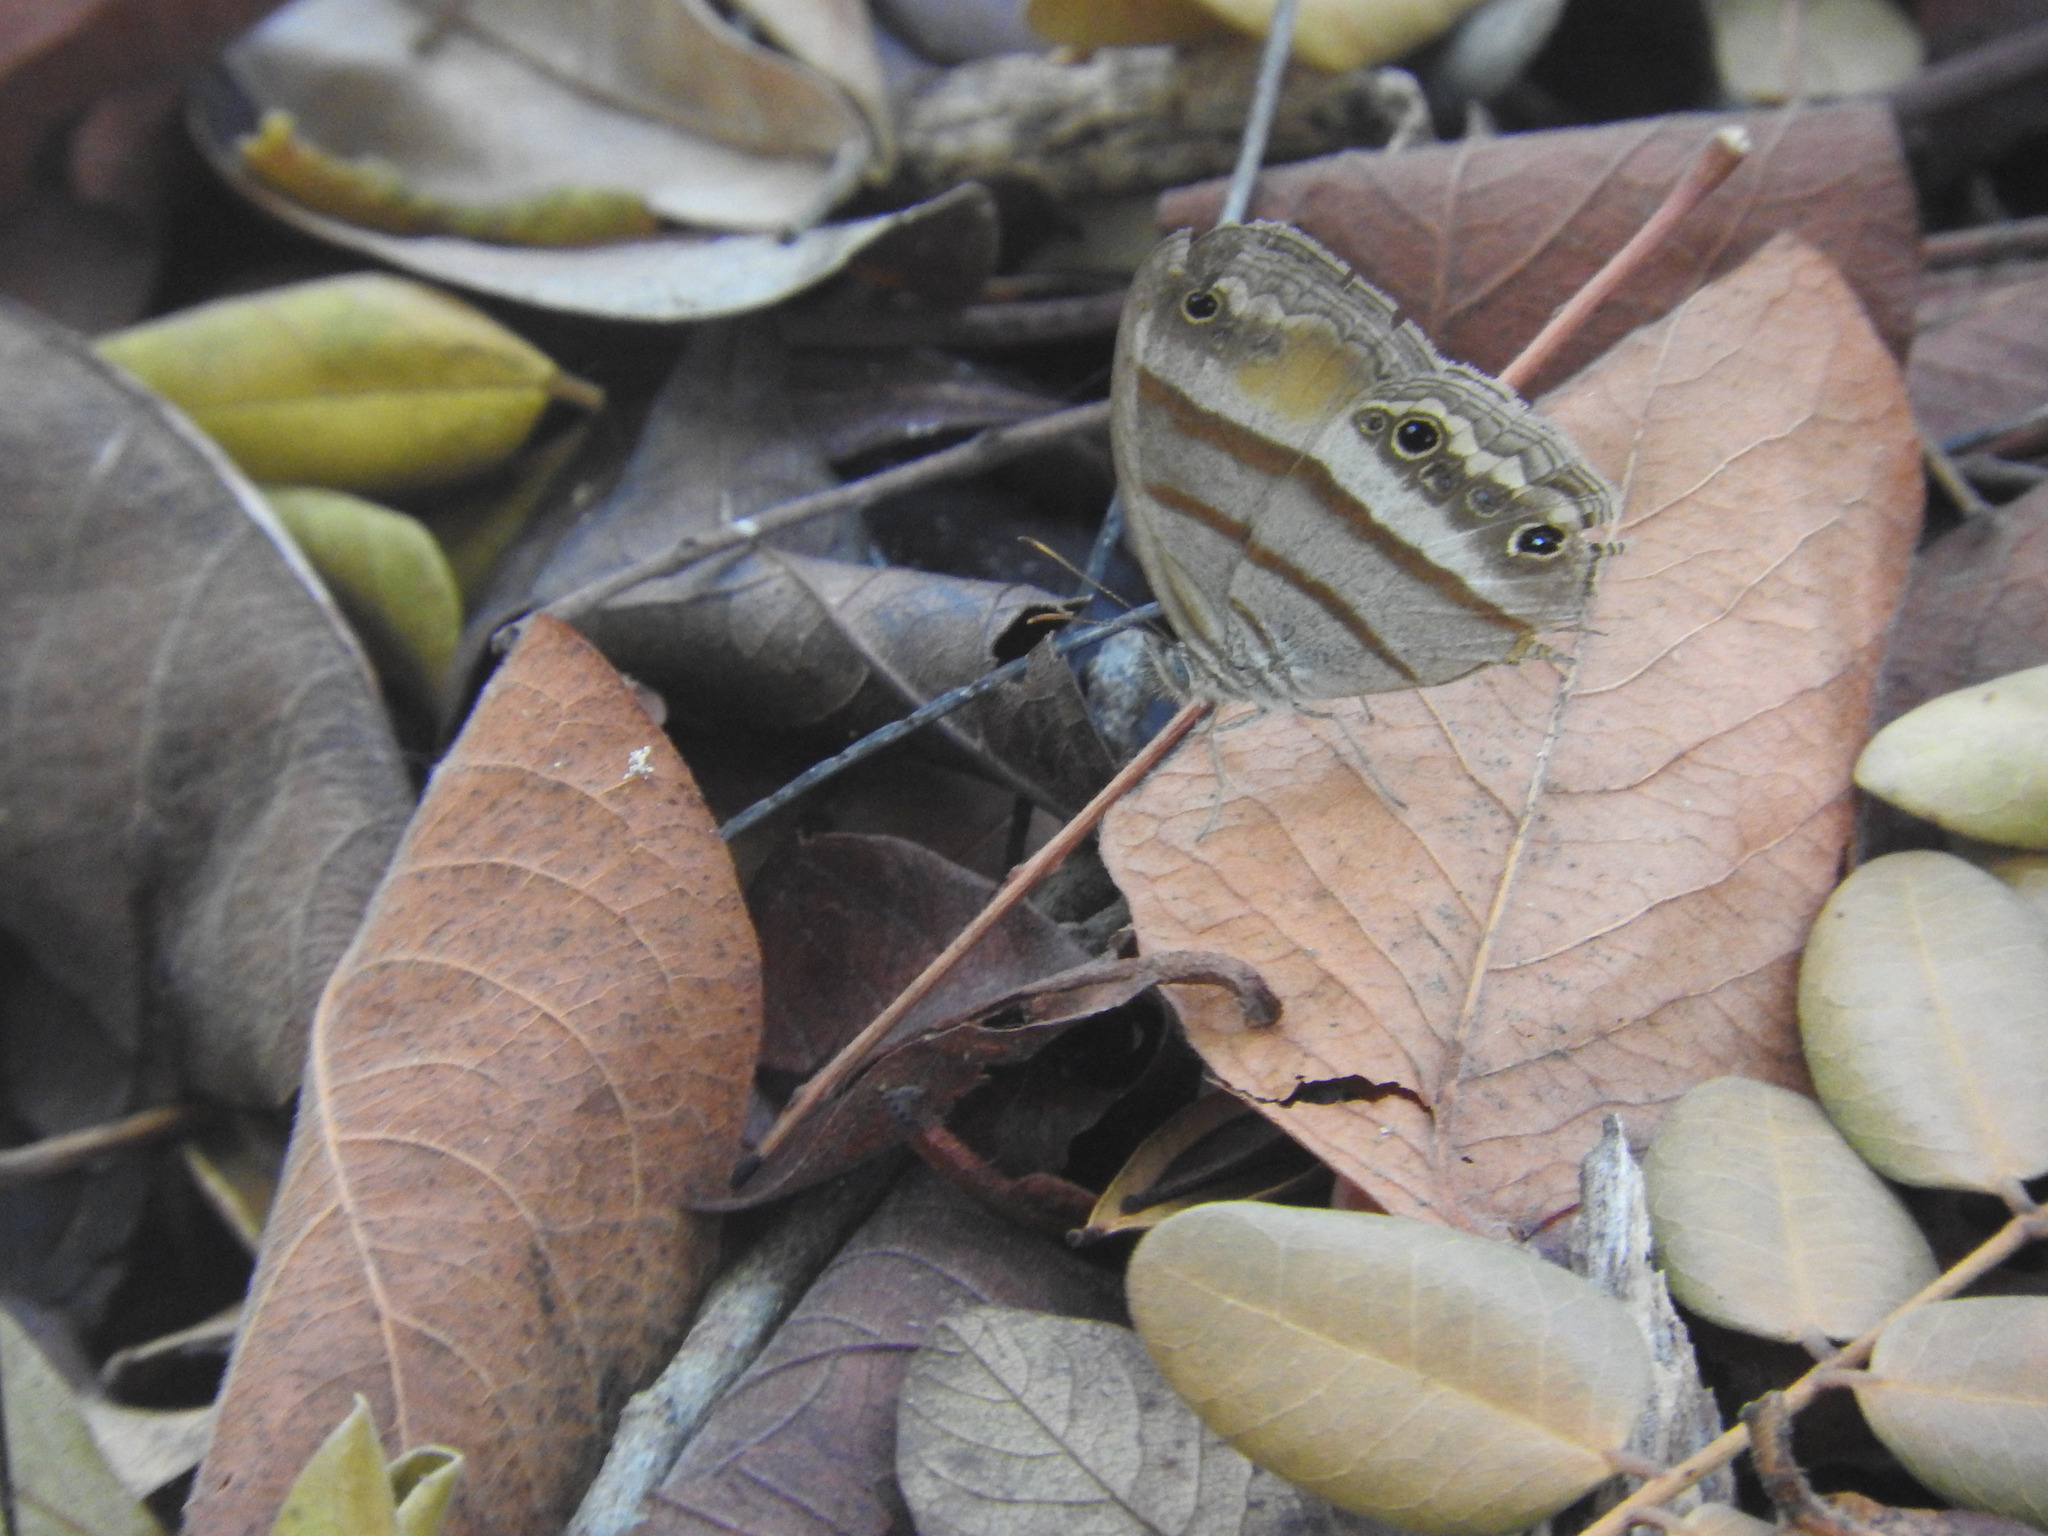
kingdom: Animalia
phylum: Arthropoda
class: Insecta
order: Lepidoptera
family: Nymphalidae
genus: Paryphthimoides
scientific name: Paryphthimoides
